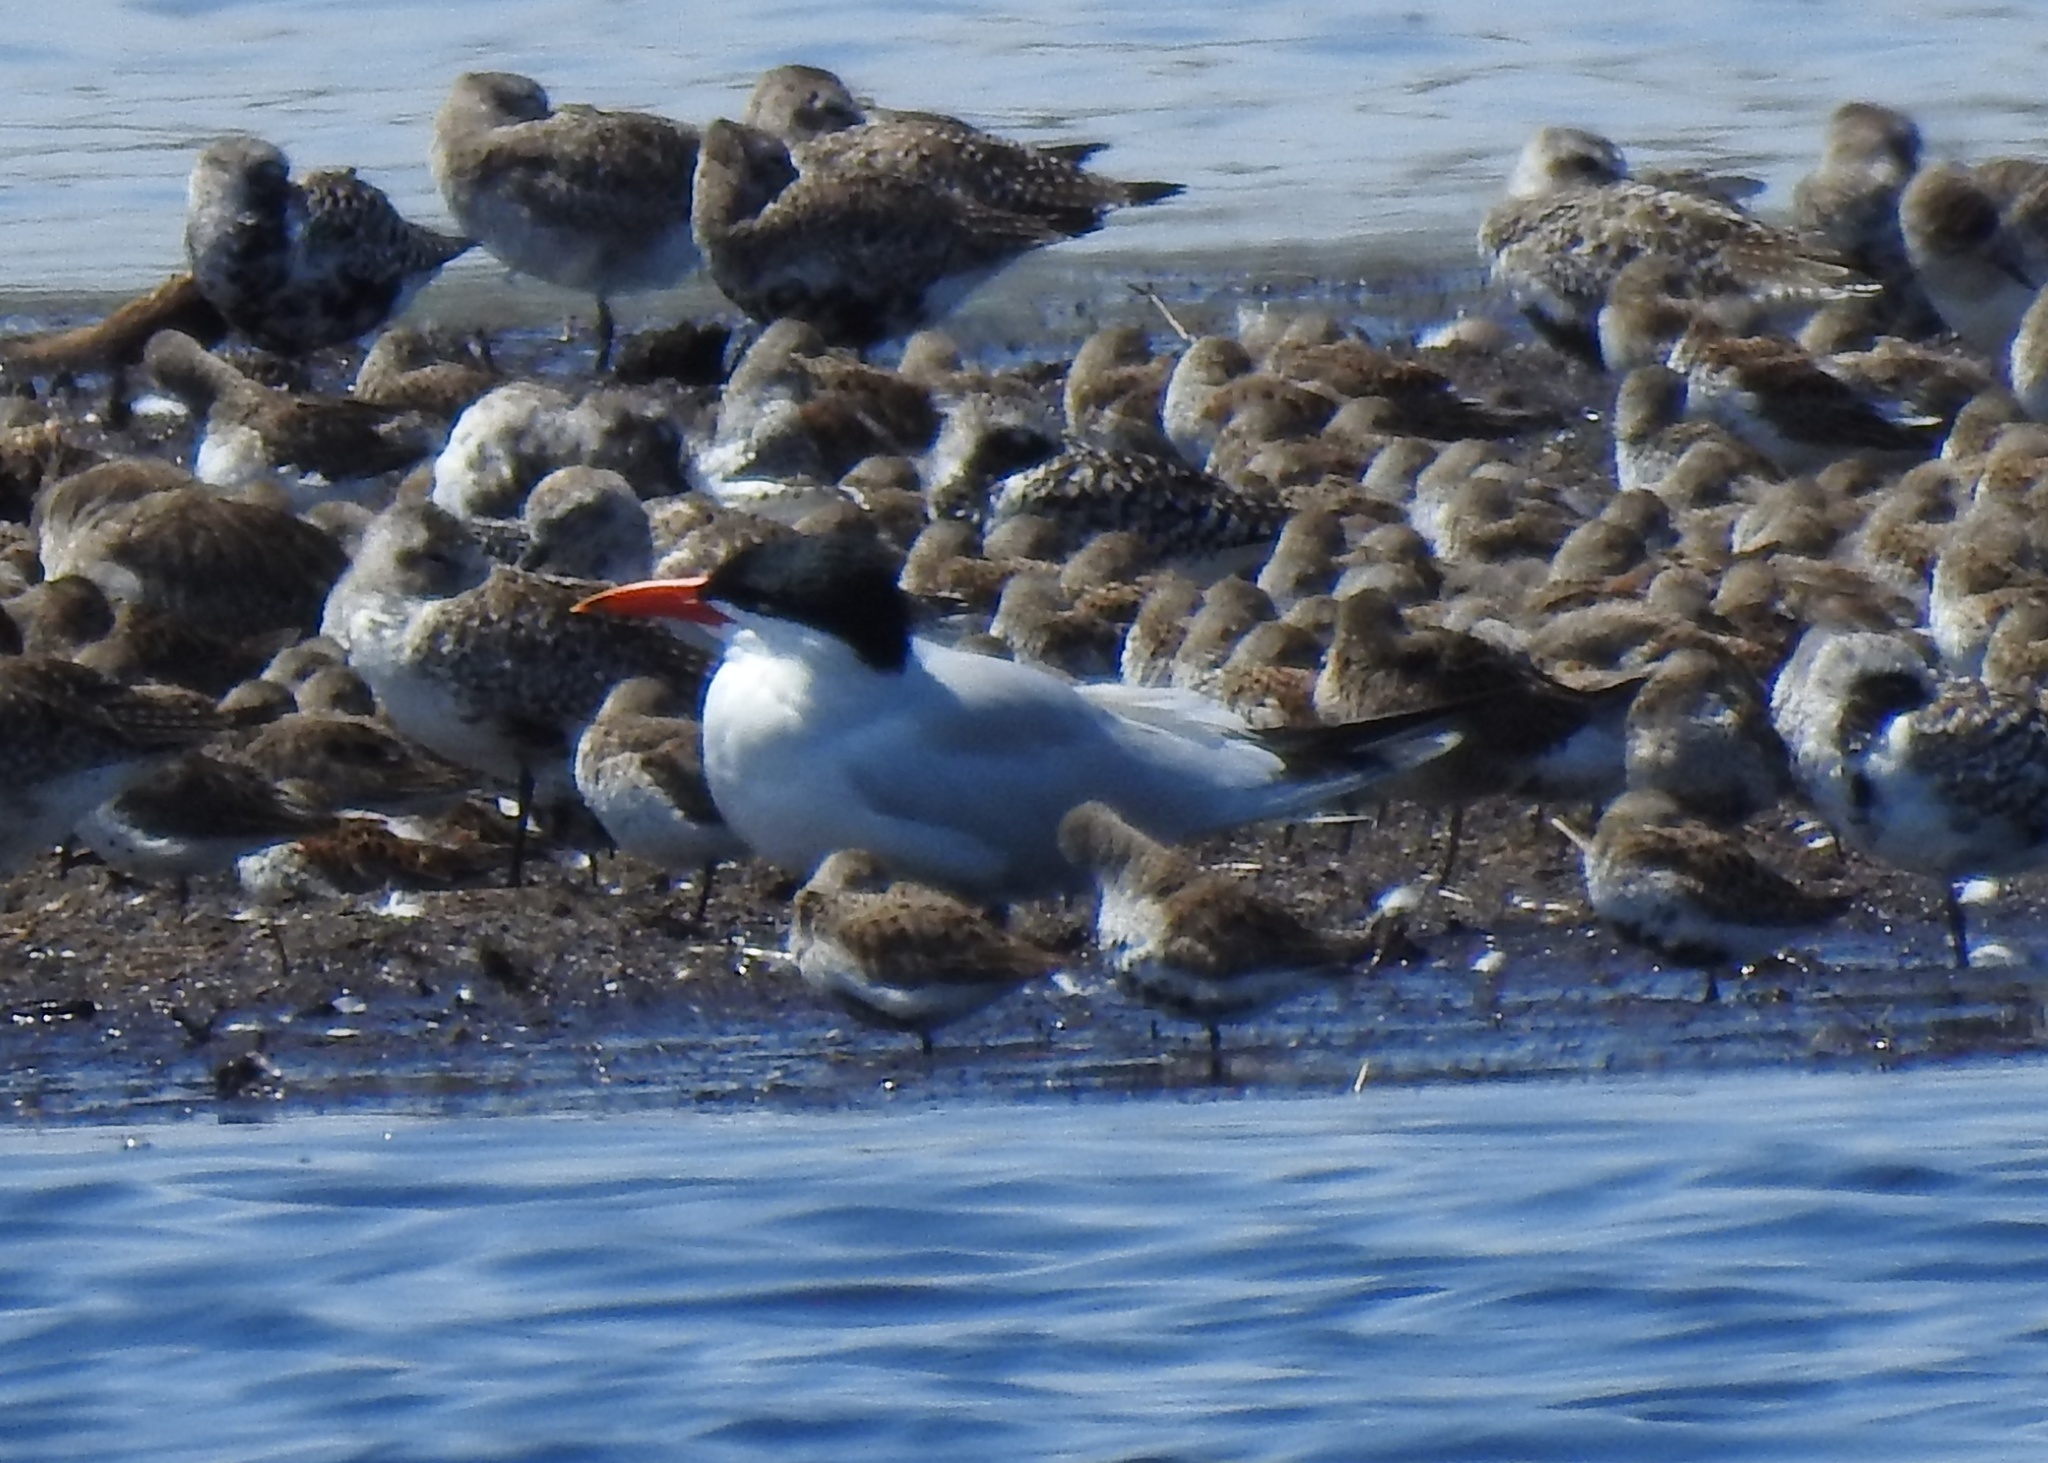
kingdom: Animalia
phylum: Chordata
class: Aves
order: Charadriiformes
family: Laridae
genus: Hydroprogne
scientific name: Hydroprogne caspia
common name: Caspian tern
